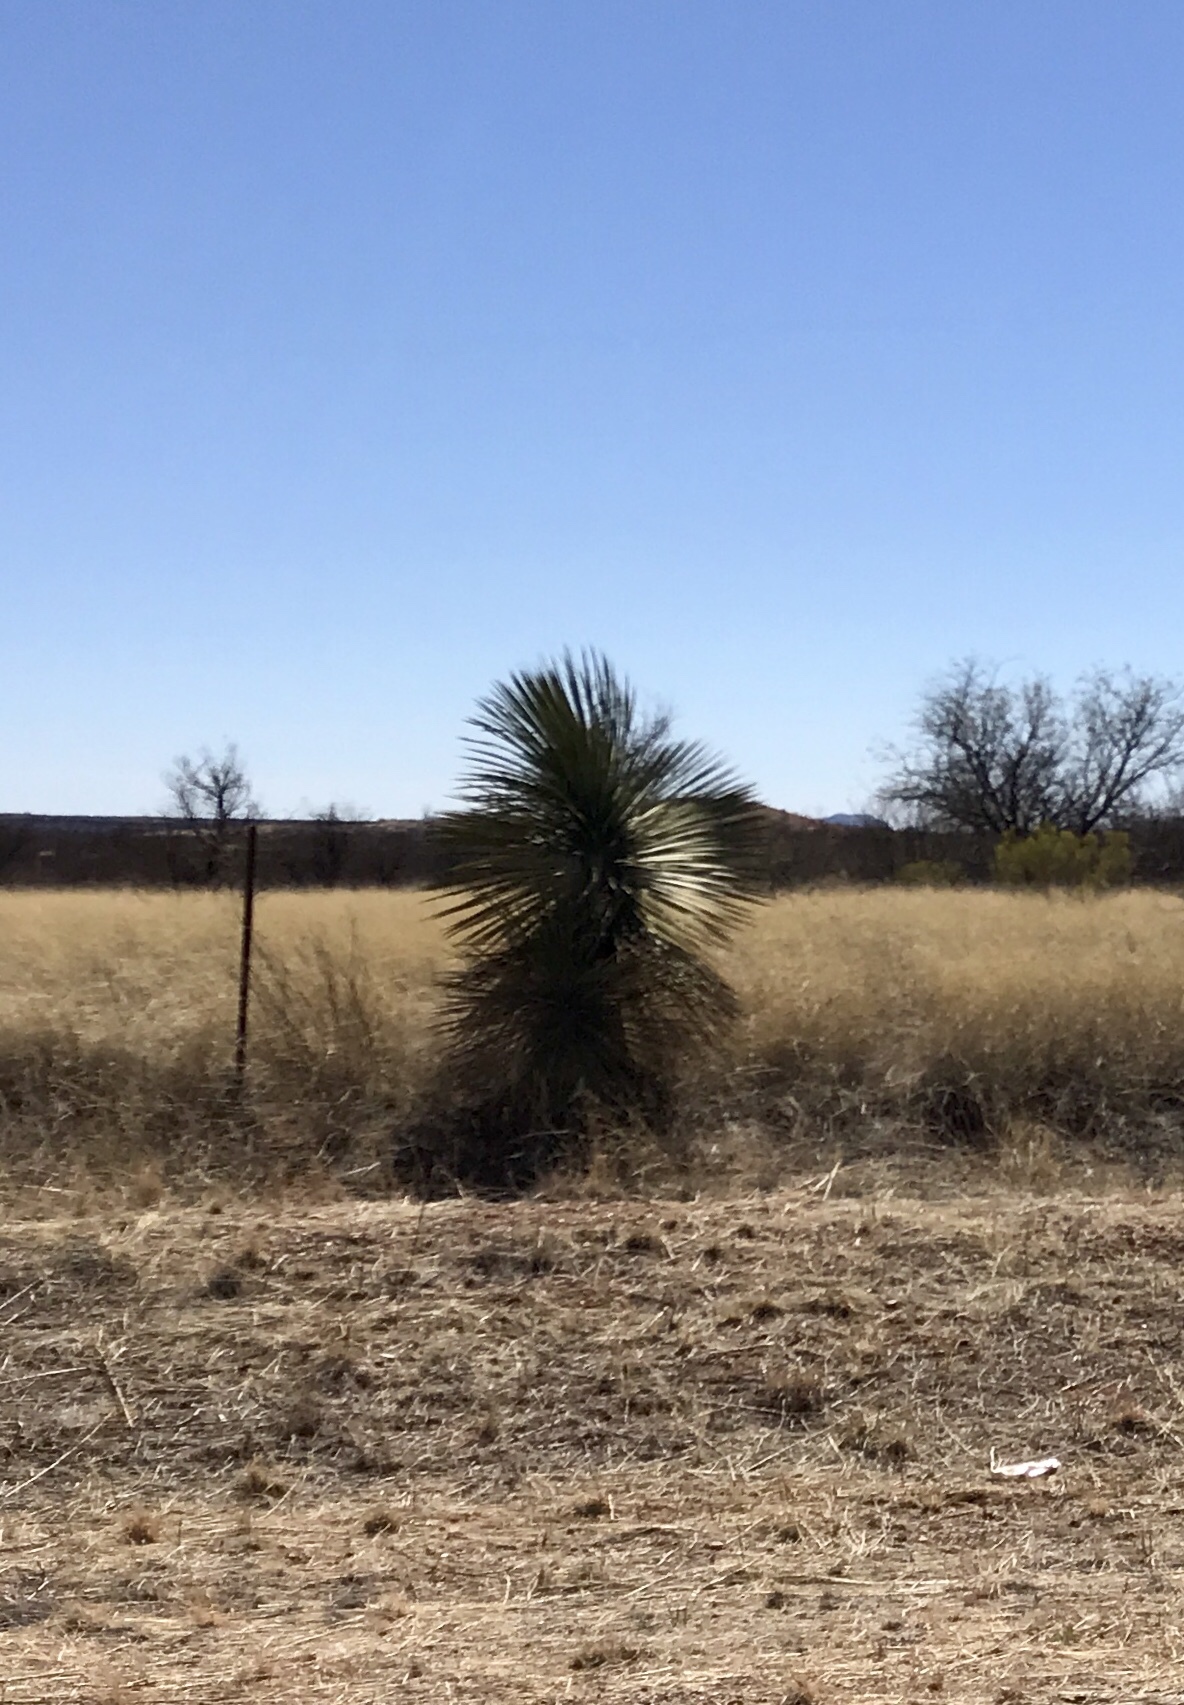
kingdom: Plantae
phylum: Tracheophyta
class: Liliopsida
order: Asparagales
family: Asparagaceae
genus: Yucca
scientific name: Yucca elata
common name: Palmella
